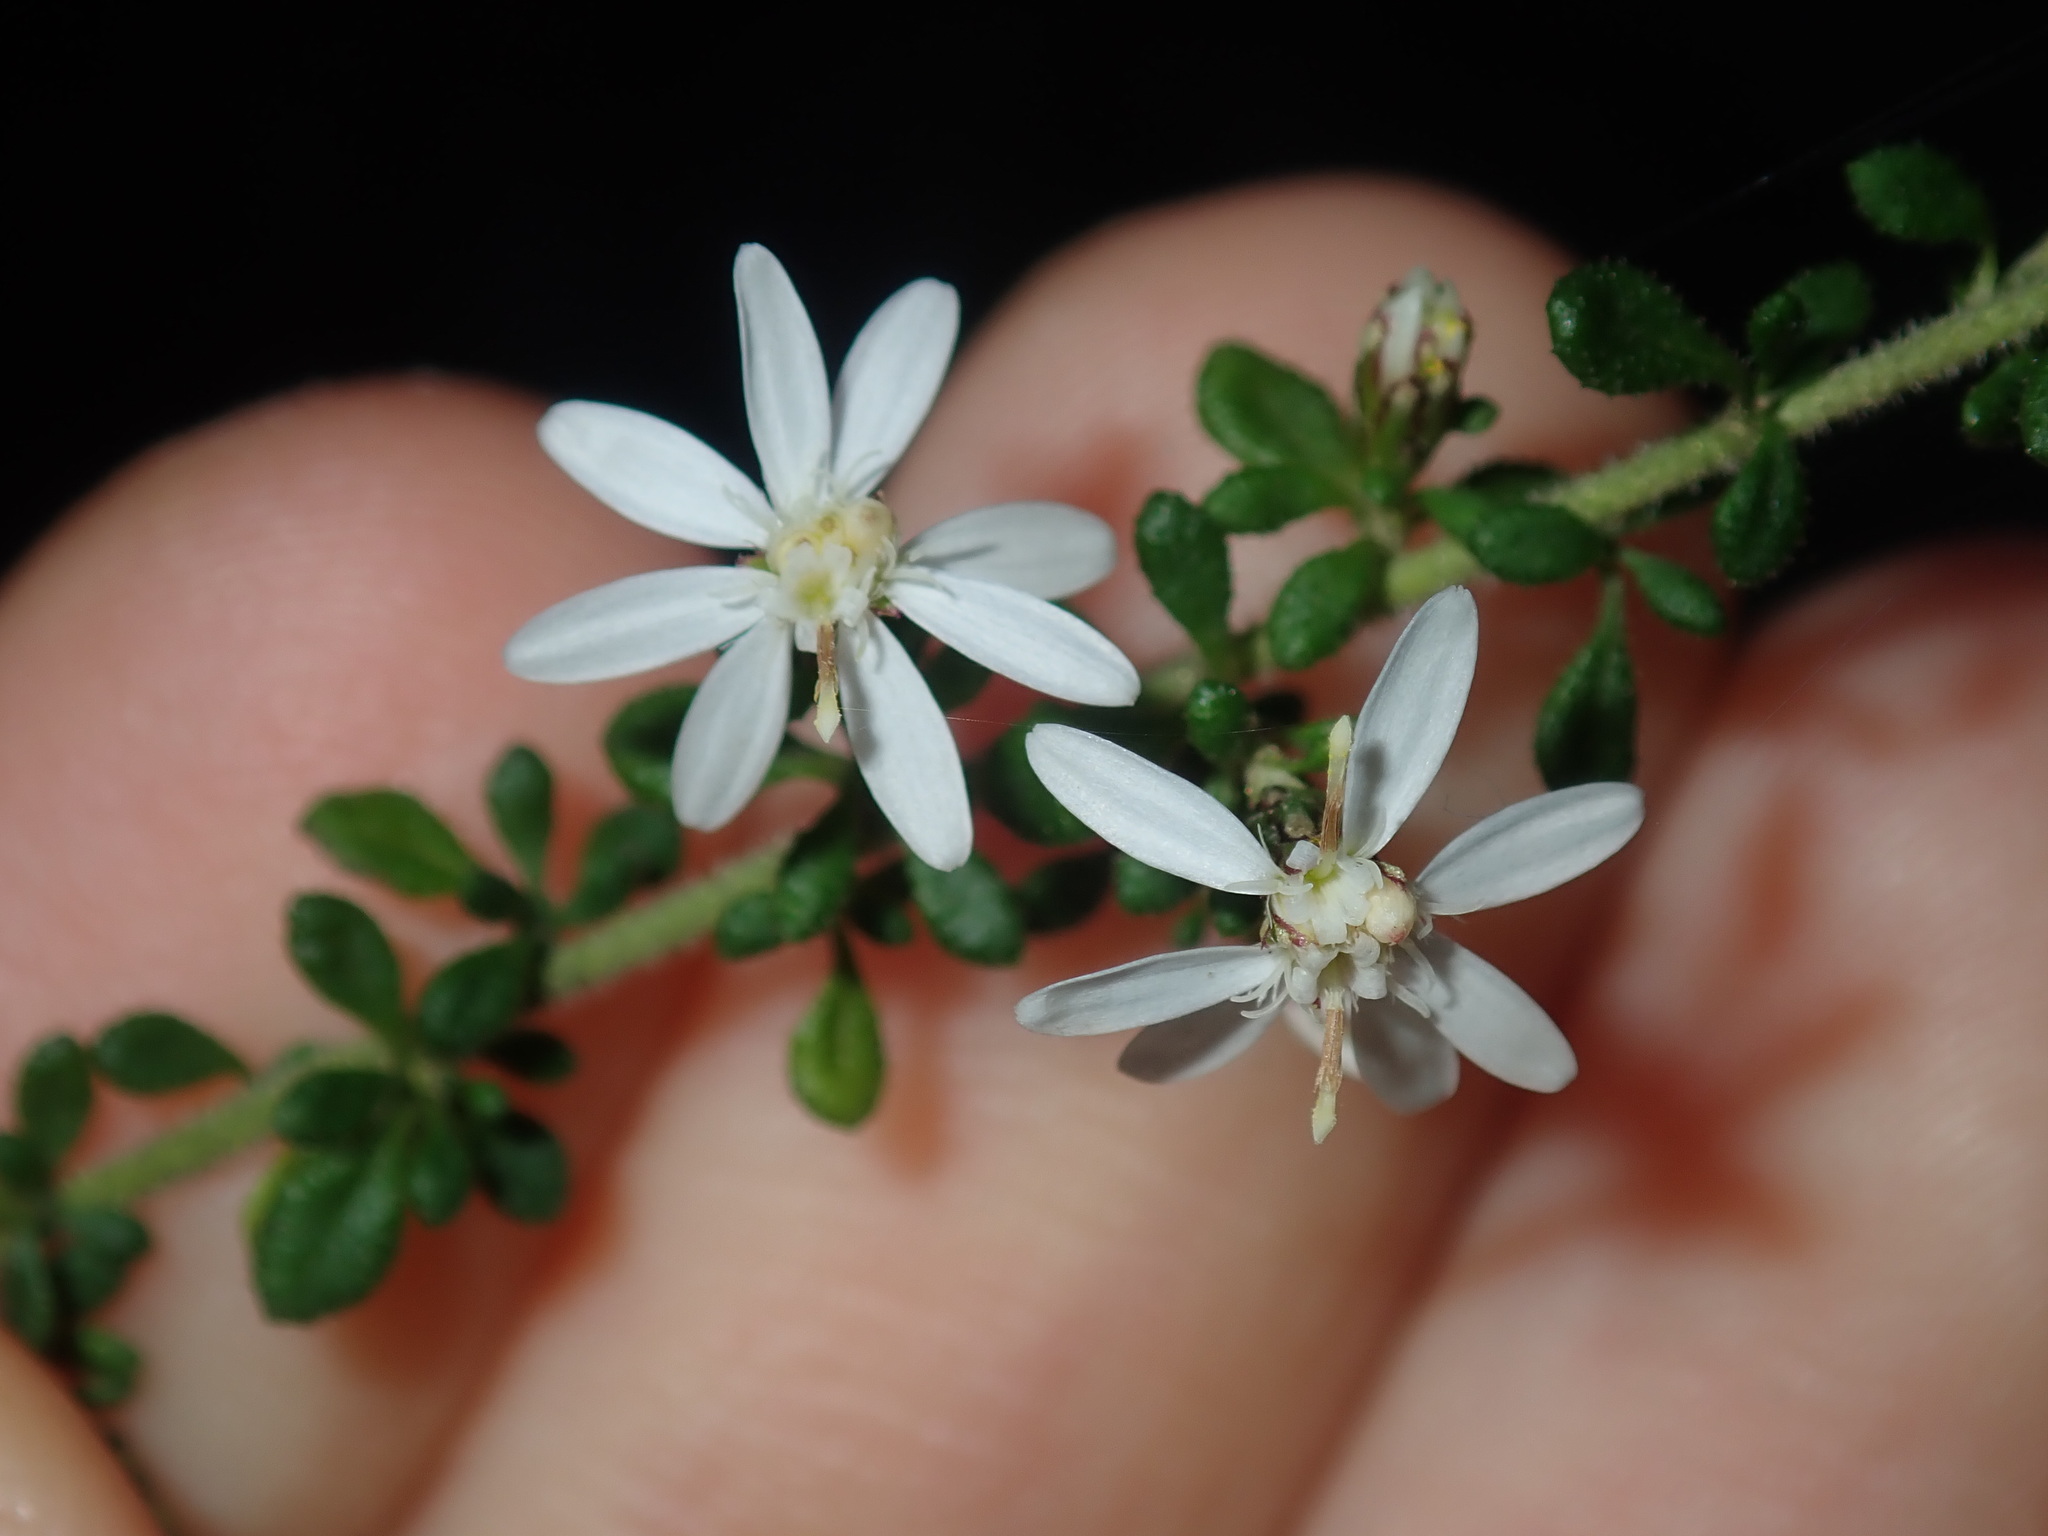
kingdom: Plantae
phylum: Tracheophyta
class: Magnoliopsida
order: Asterales
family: Asteraceae
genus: Olearia
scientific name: Olearia microphylla
